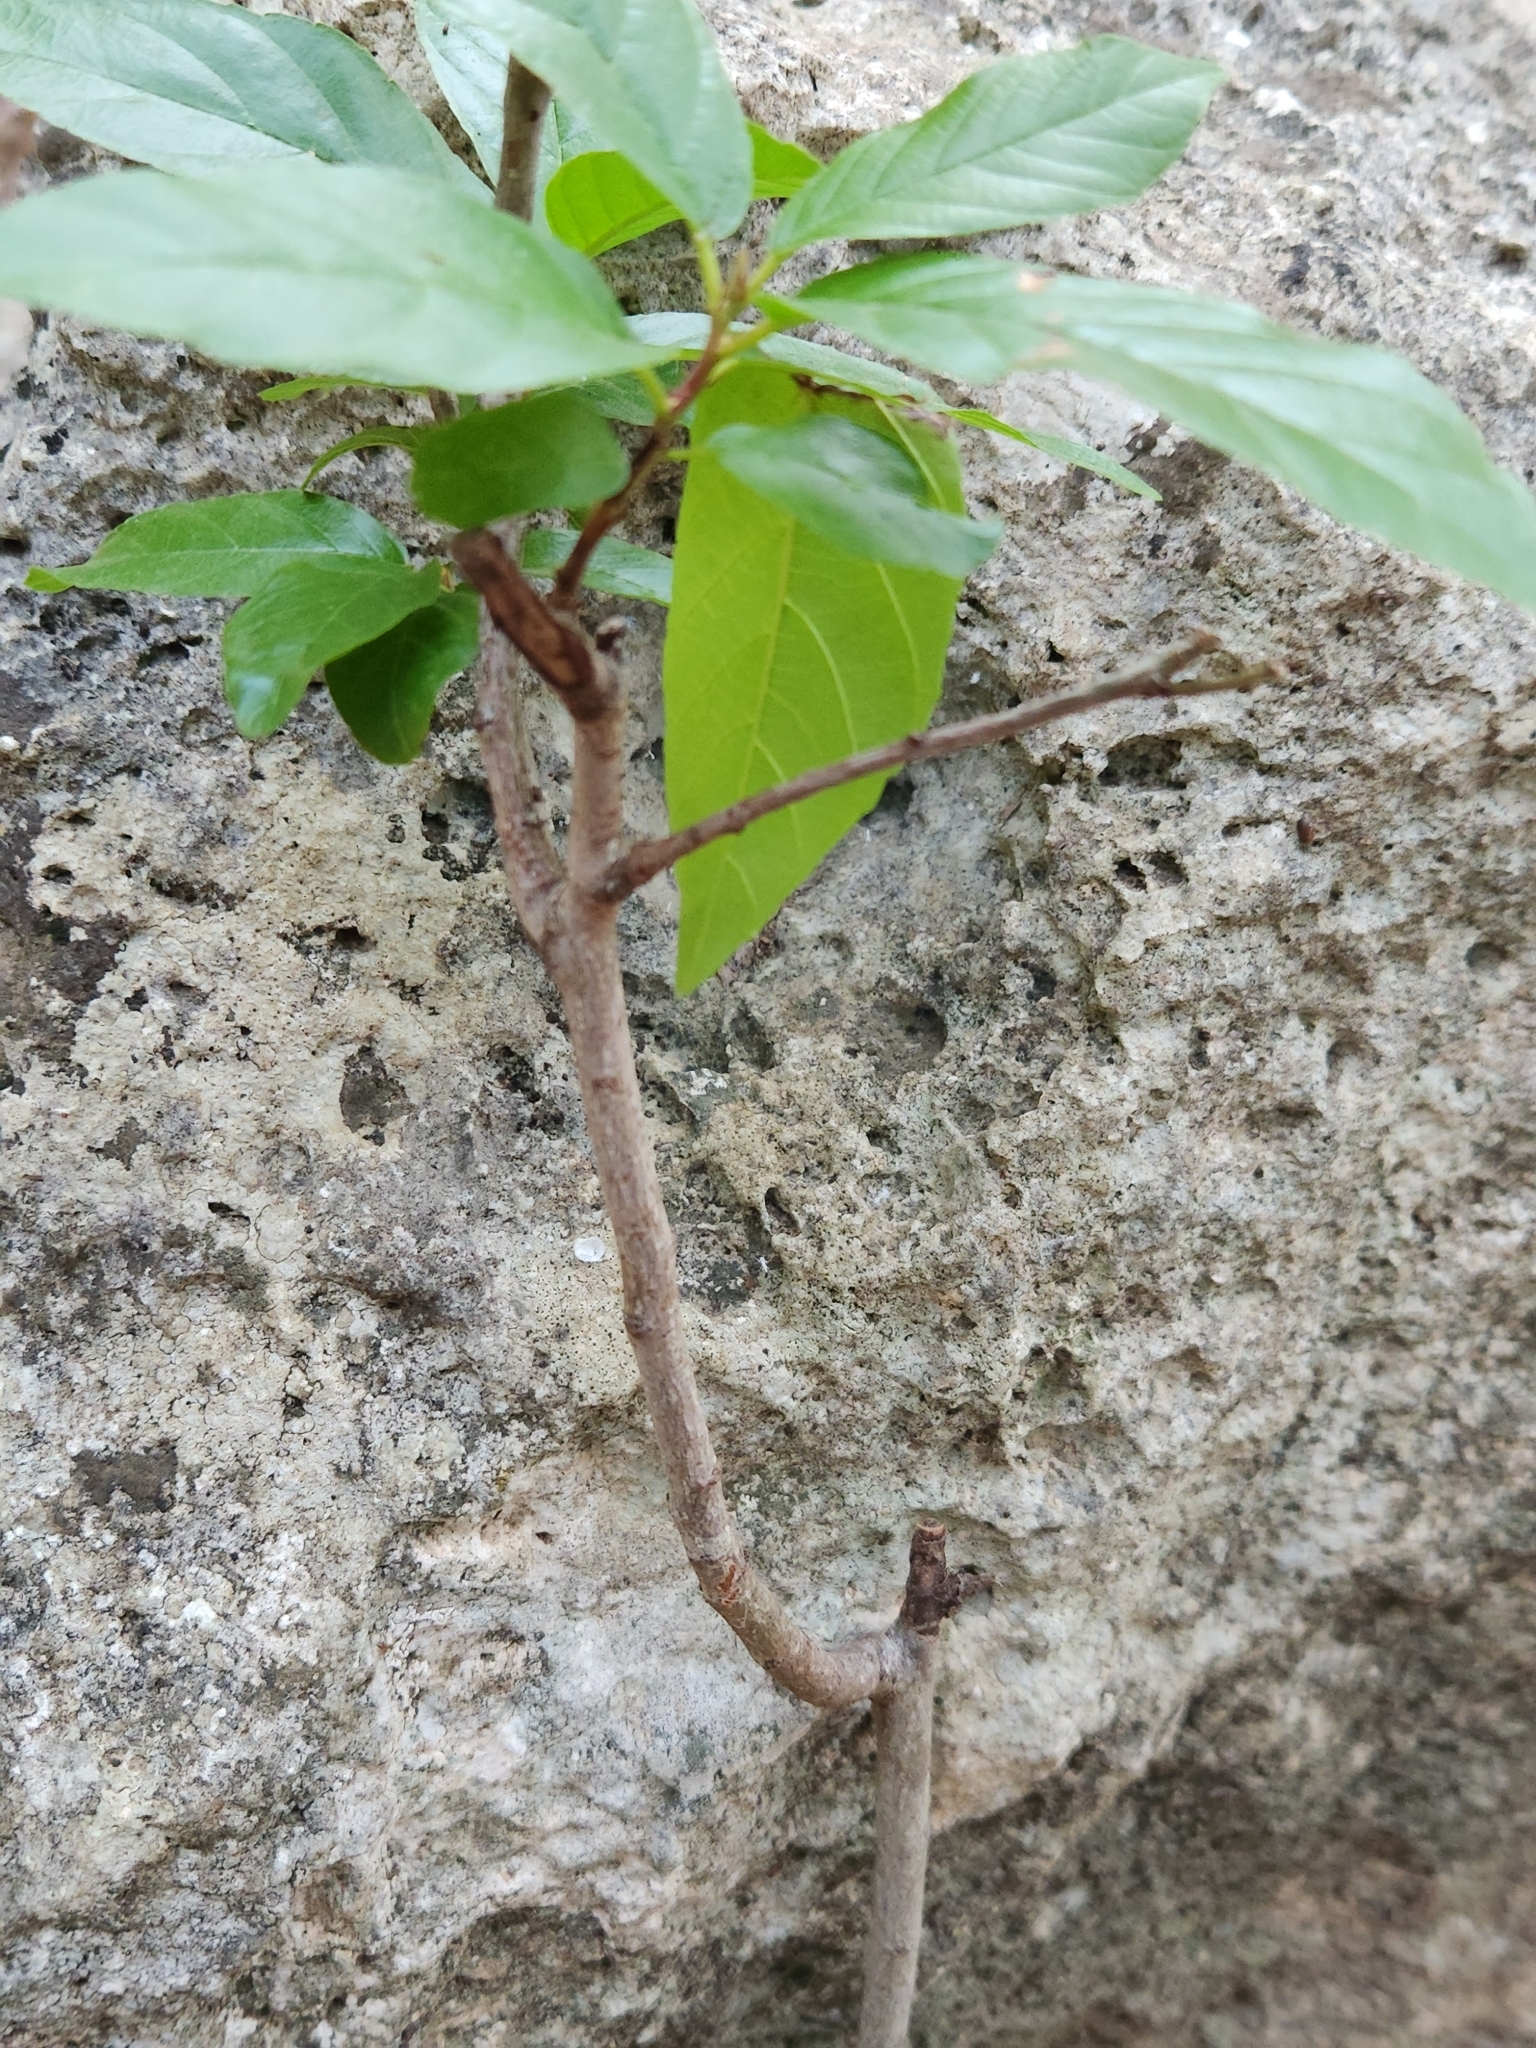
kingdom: Plantae
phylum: Tracheophyta
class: Magnoliopsida
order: Rosales
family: Rhamnaceae
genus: Frangula
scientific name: Frangula caroliniana
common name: Carolina buckthorn
